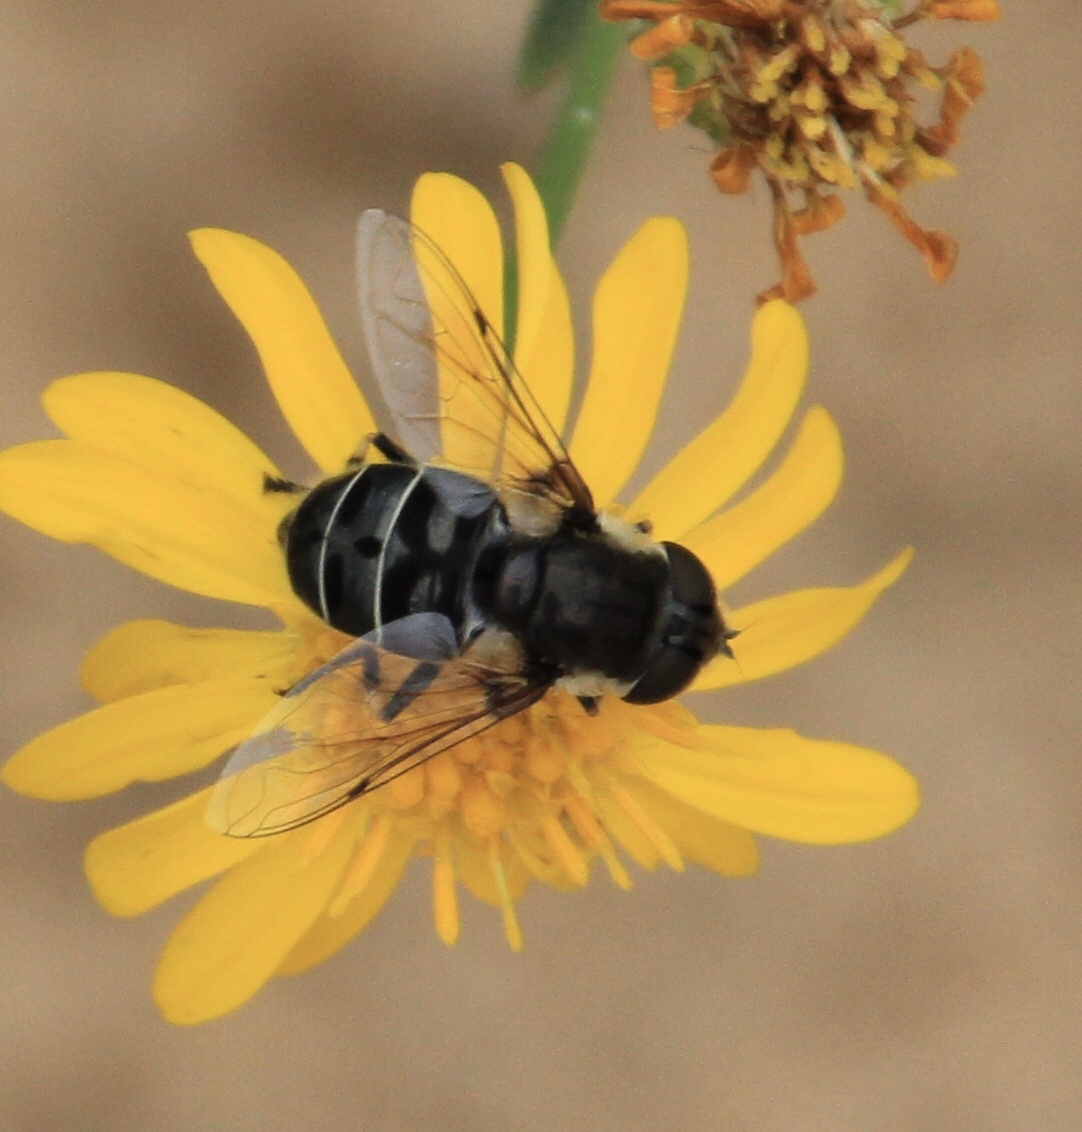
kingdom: Animalia
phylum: Arthropoda
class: Insecta
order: Diptera
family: Syrphidae
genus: Eristalis
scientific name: Eristalis dimidiata
